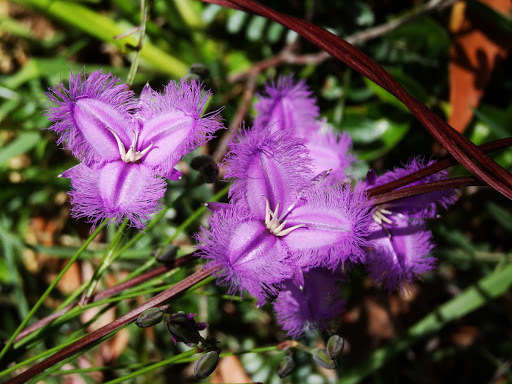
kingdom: Plantae
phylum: Tracheophyta
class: Liliopsida
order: Asparagales
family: Asparagaceae
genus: Thysanotus
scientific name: Thysanotus tuberosus
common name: Common fringed-lily
